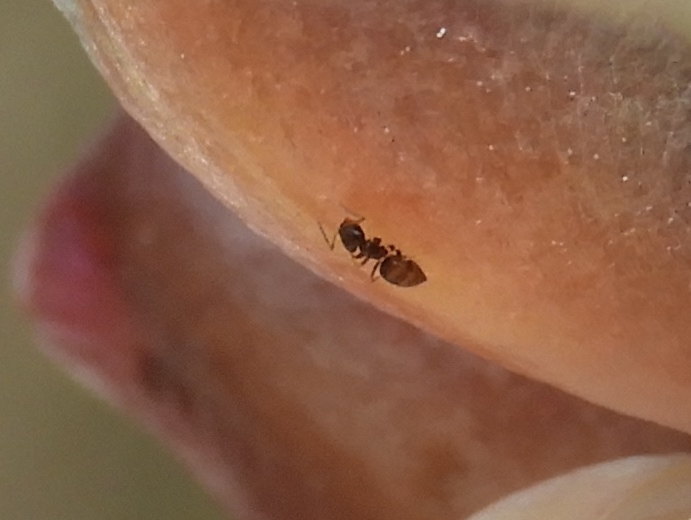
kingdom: Animalia
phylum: Arthropoda
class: Insecta
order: Hymenoptera
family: Formicidae
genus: Brachymyrmex
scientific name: Brachymyrmex patagonicus
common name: Dark rover ant
